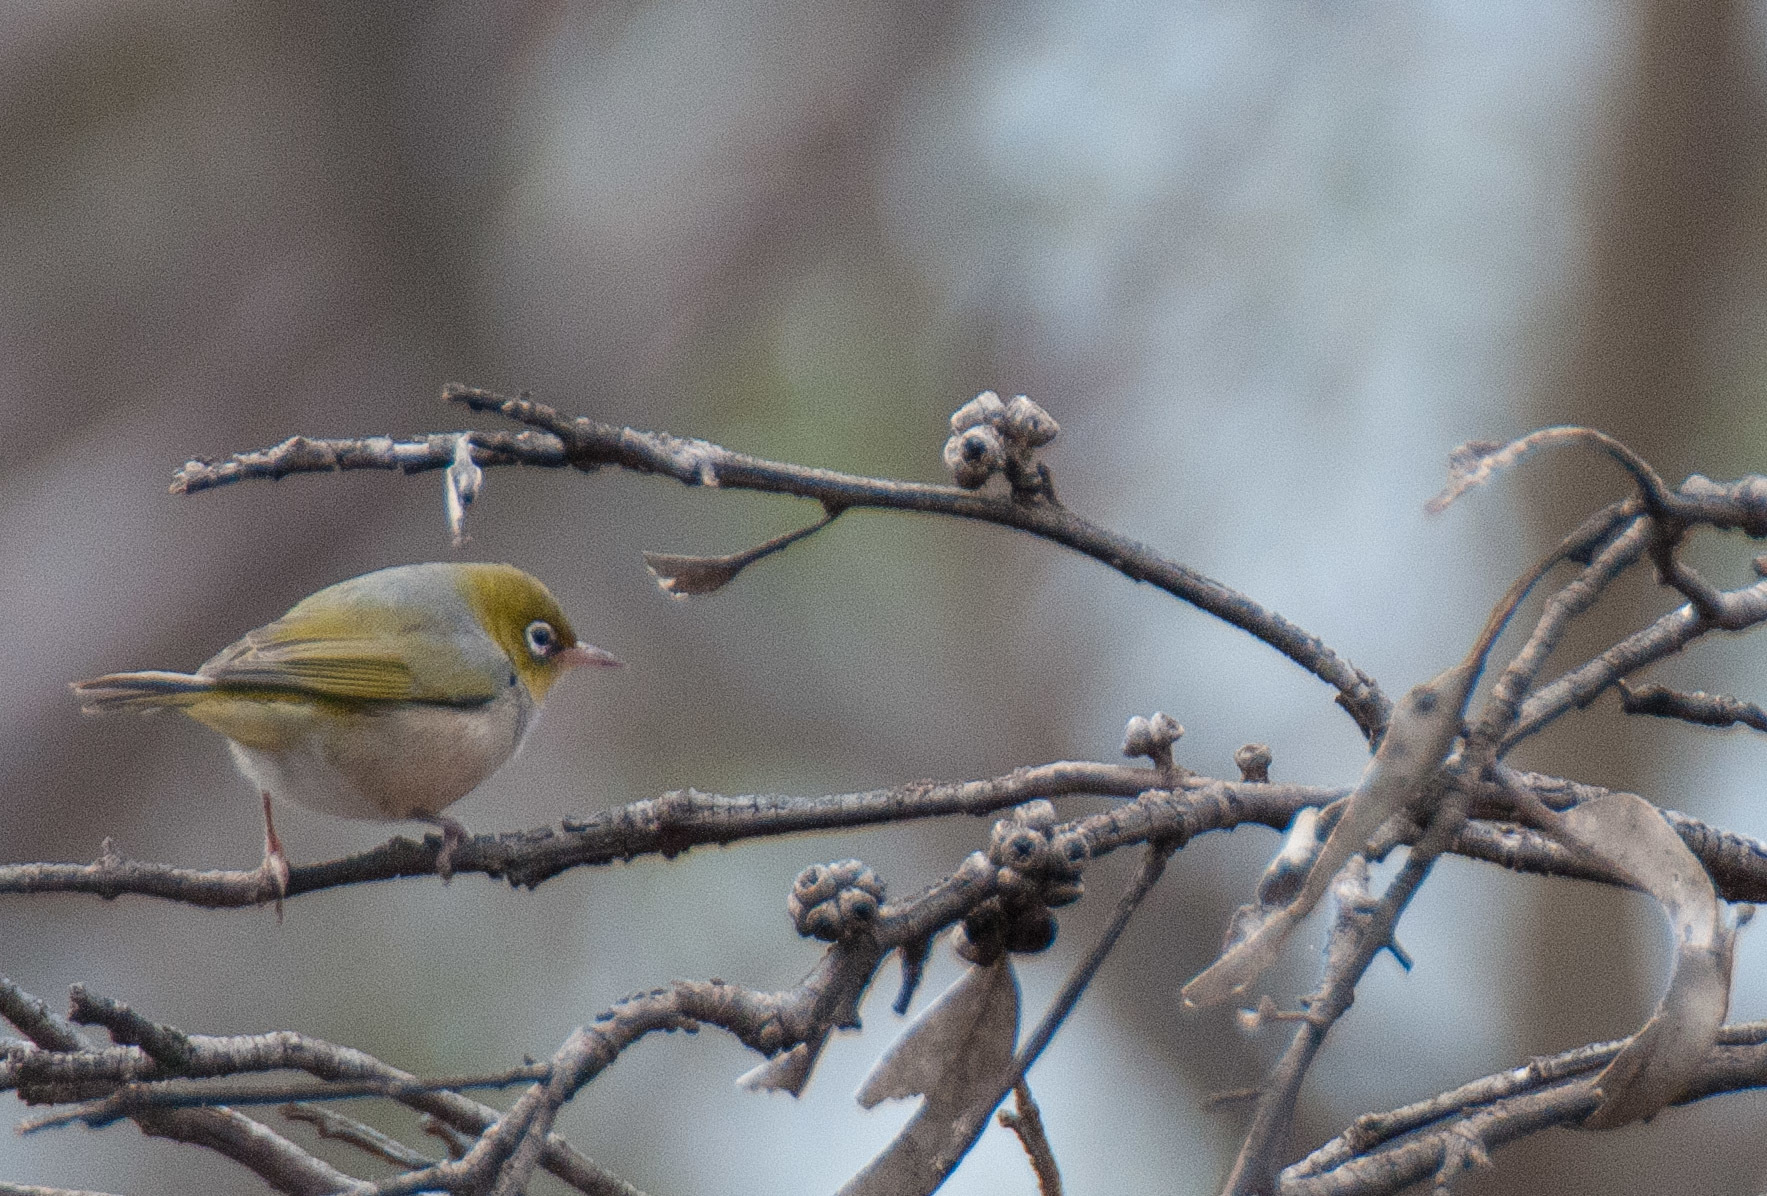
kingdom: Animalia
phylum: Chordata
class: Aves
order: Passeriformes
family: Zosteropidae
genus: Zosterops
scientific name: Zosterops lateralis
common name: Silvereye
